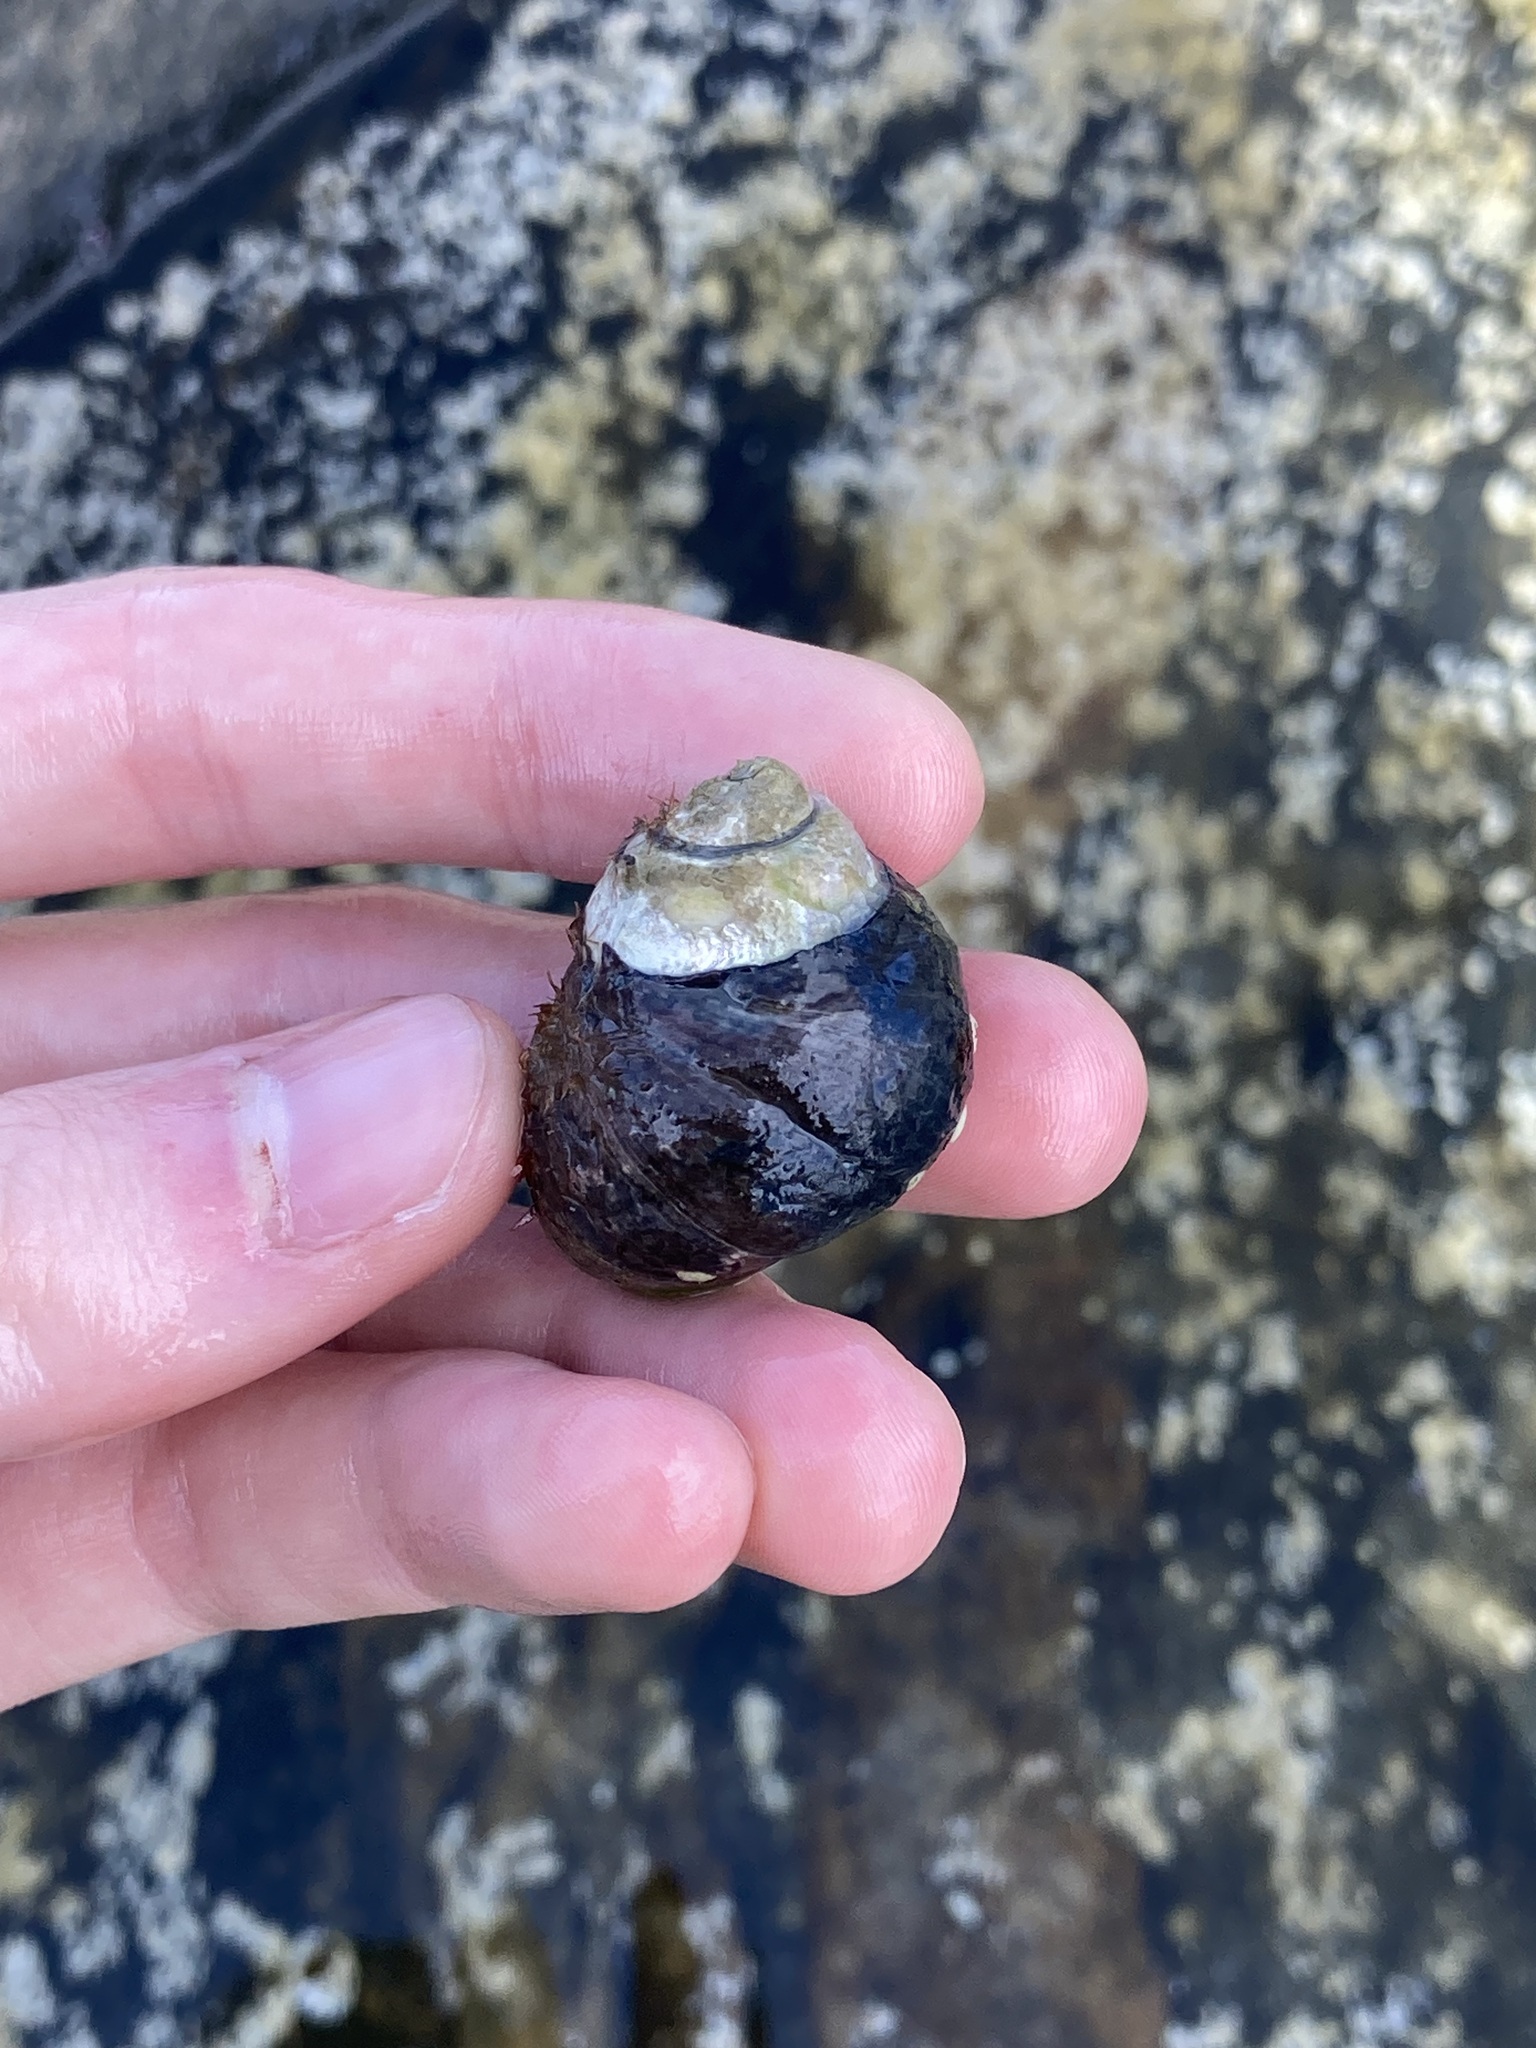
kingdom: Animalia
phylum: Mollusca
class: Gastropoda
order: Trochida
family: Trochidae
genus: Austrocochlea
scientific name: Austrocochlea rudis
